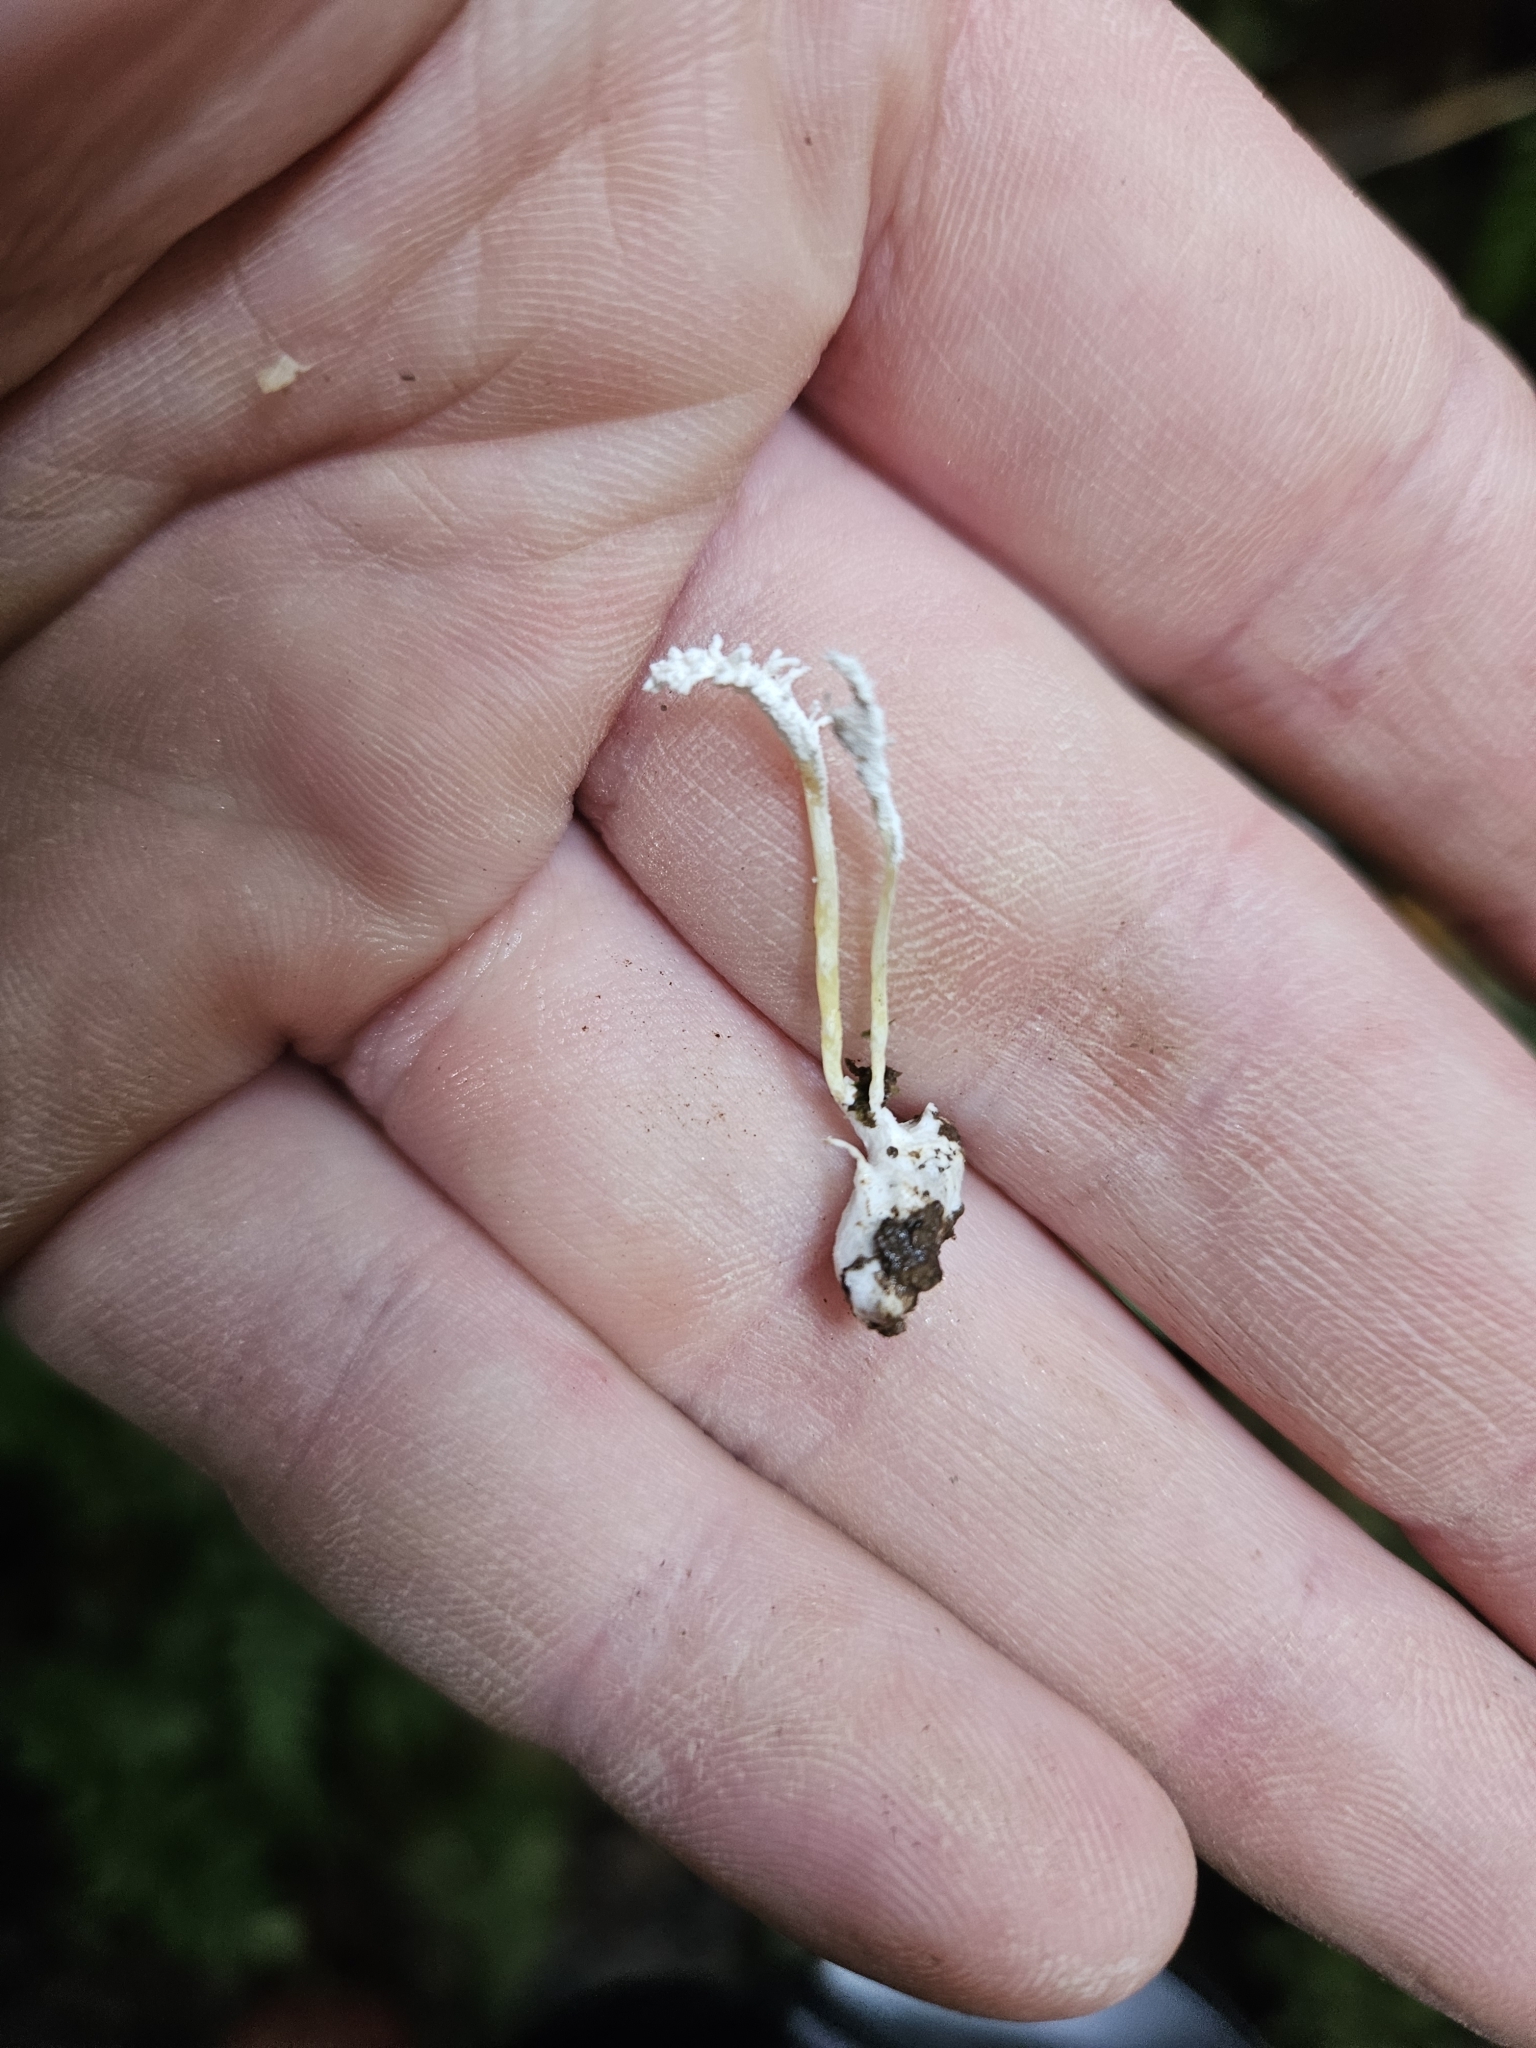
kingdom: Fungi
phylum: Ascomycota
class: Sordariomycetes
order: Hypocreales
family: Cordycipitaceae
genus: Cordyceps
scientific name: Cordyceps tenuipes
